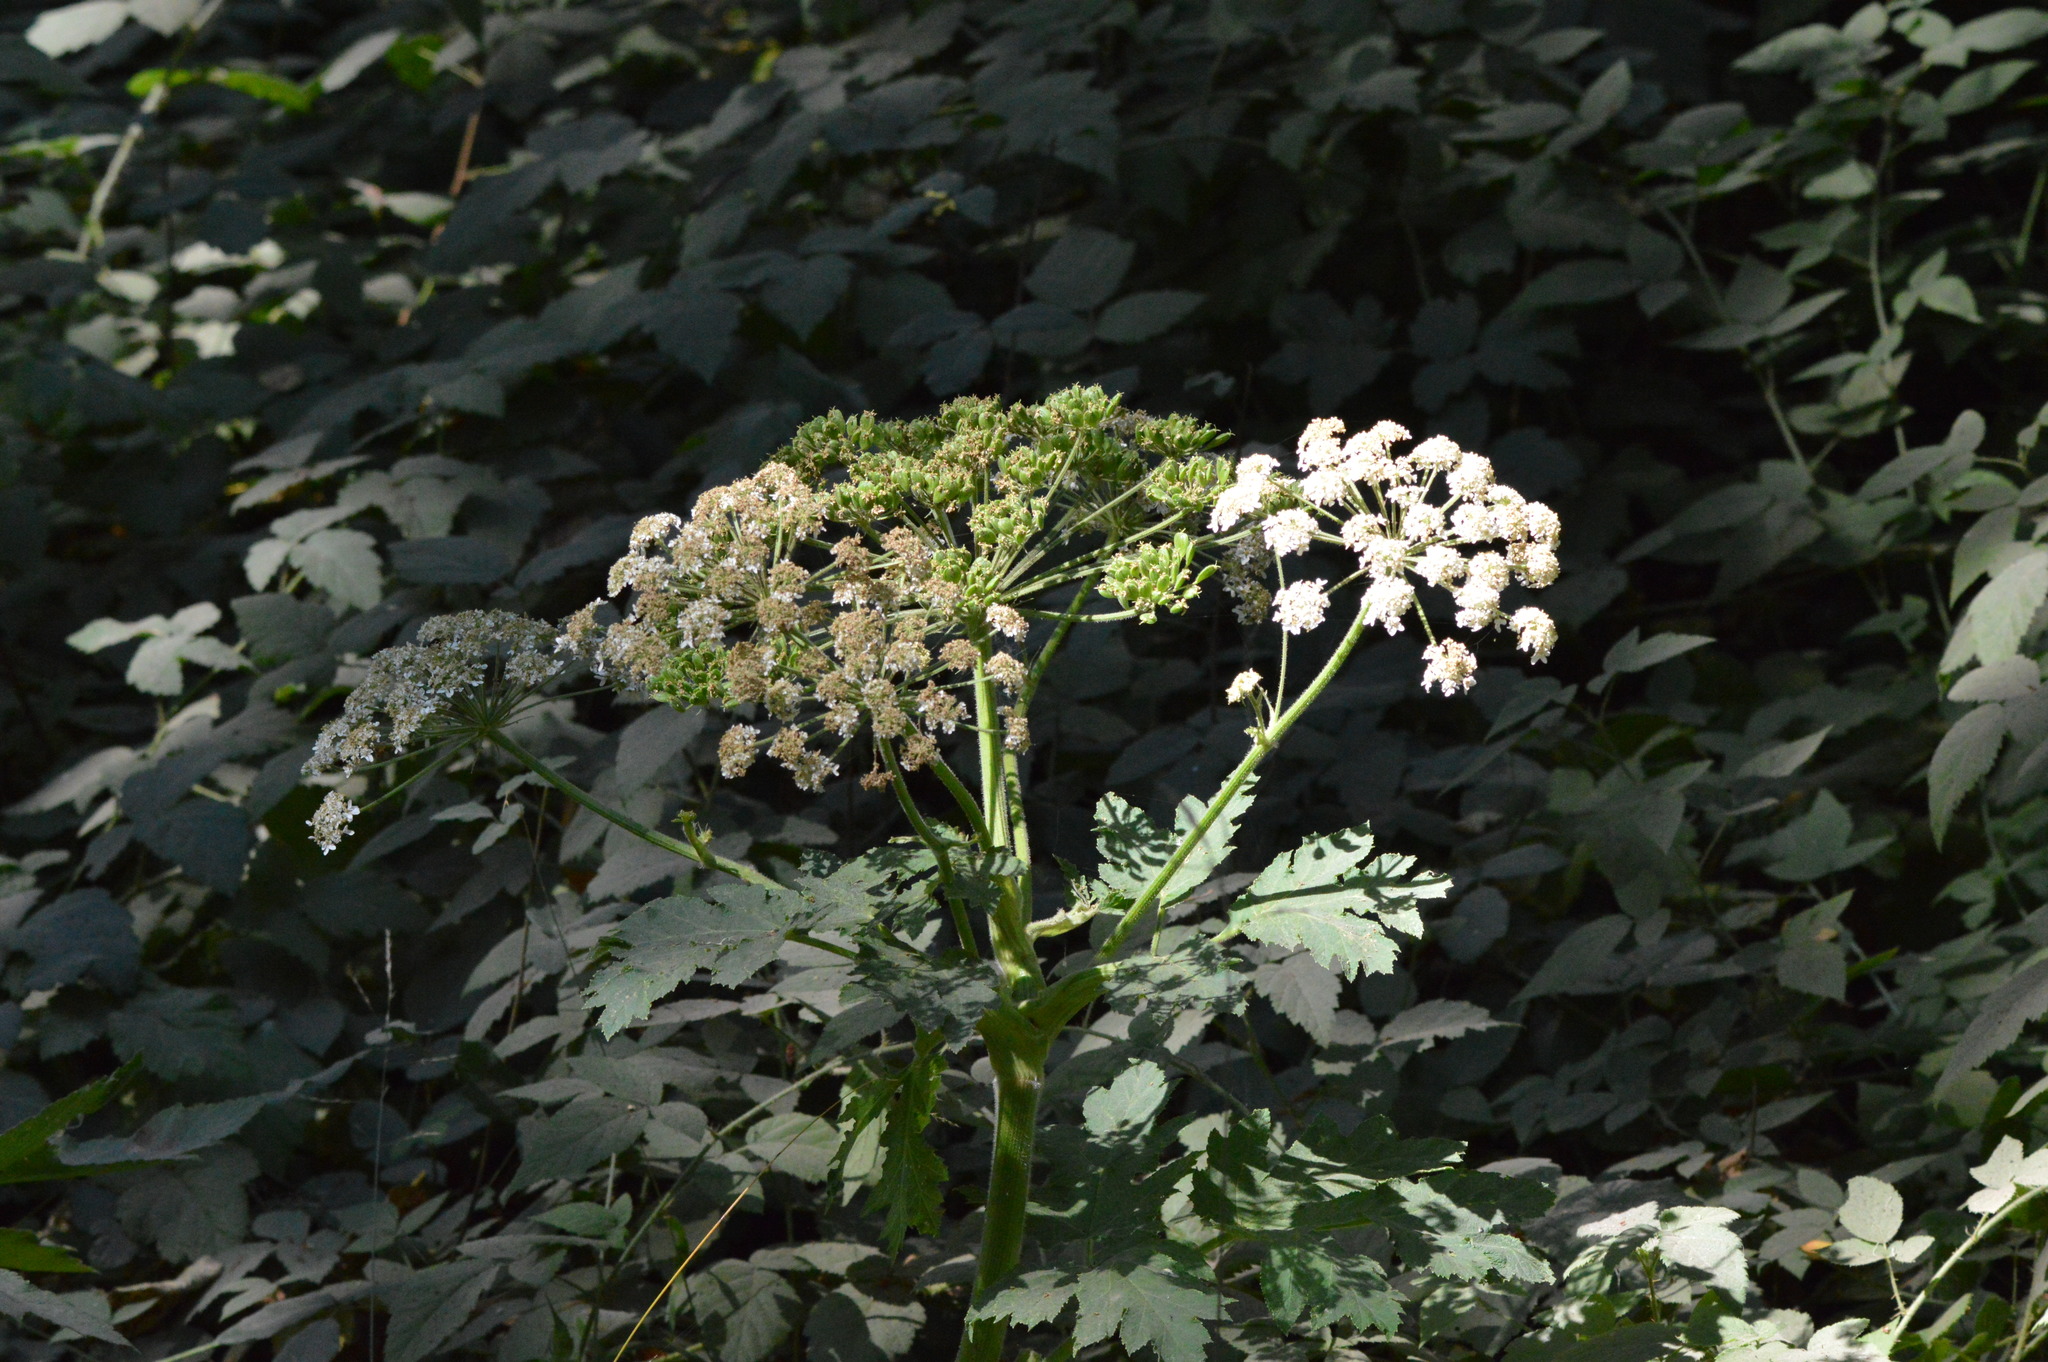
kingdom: Plantae
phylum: Tracheophyta
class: Magnoliopsida
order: Apiales
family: Apiaceae
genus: Heracleum
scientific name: Heracleum maximum
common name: American cow parsnip
